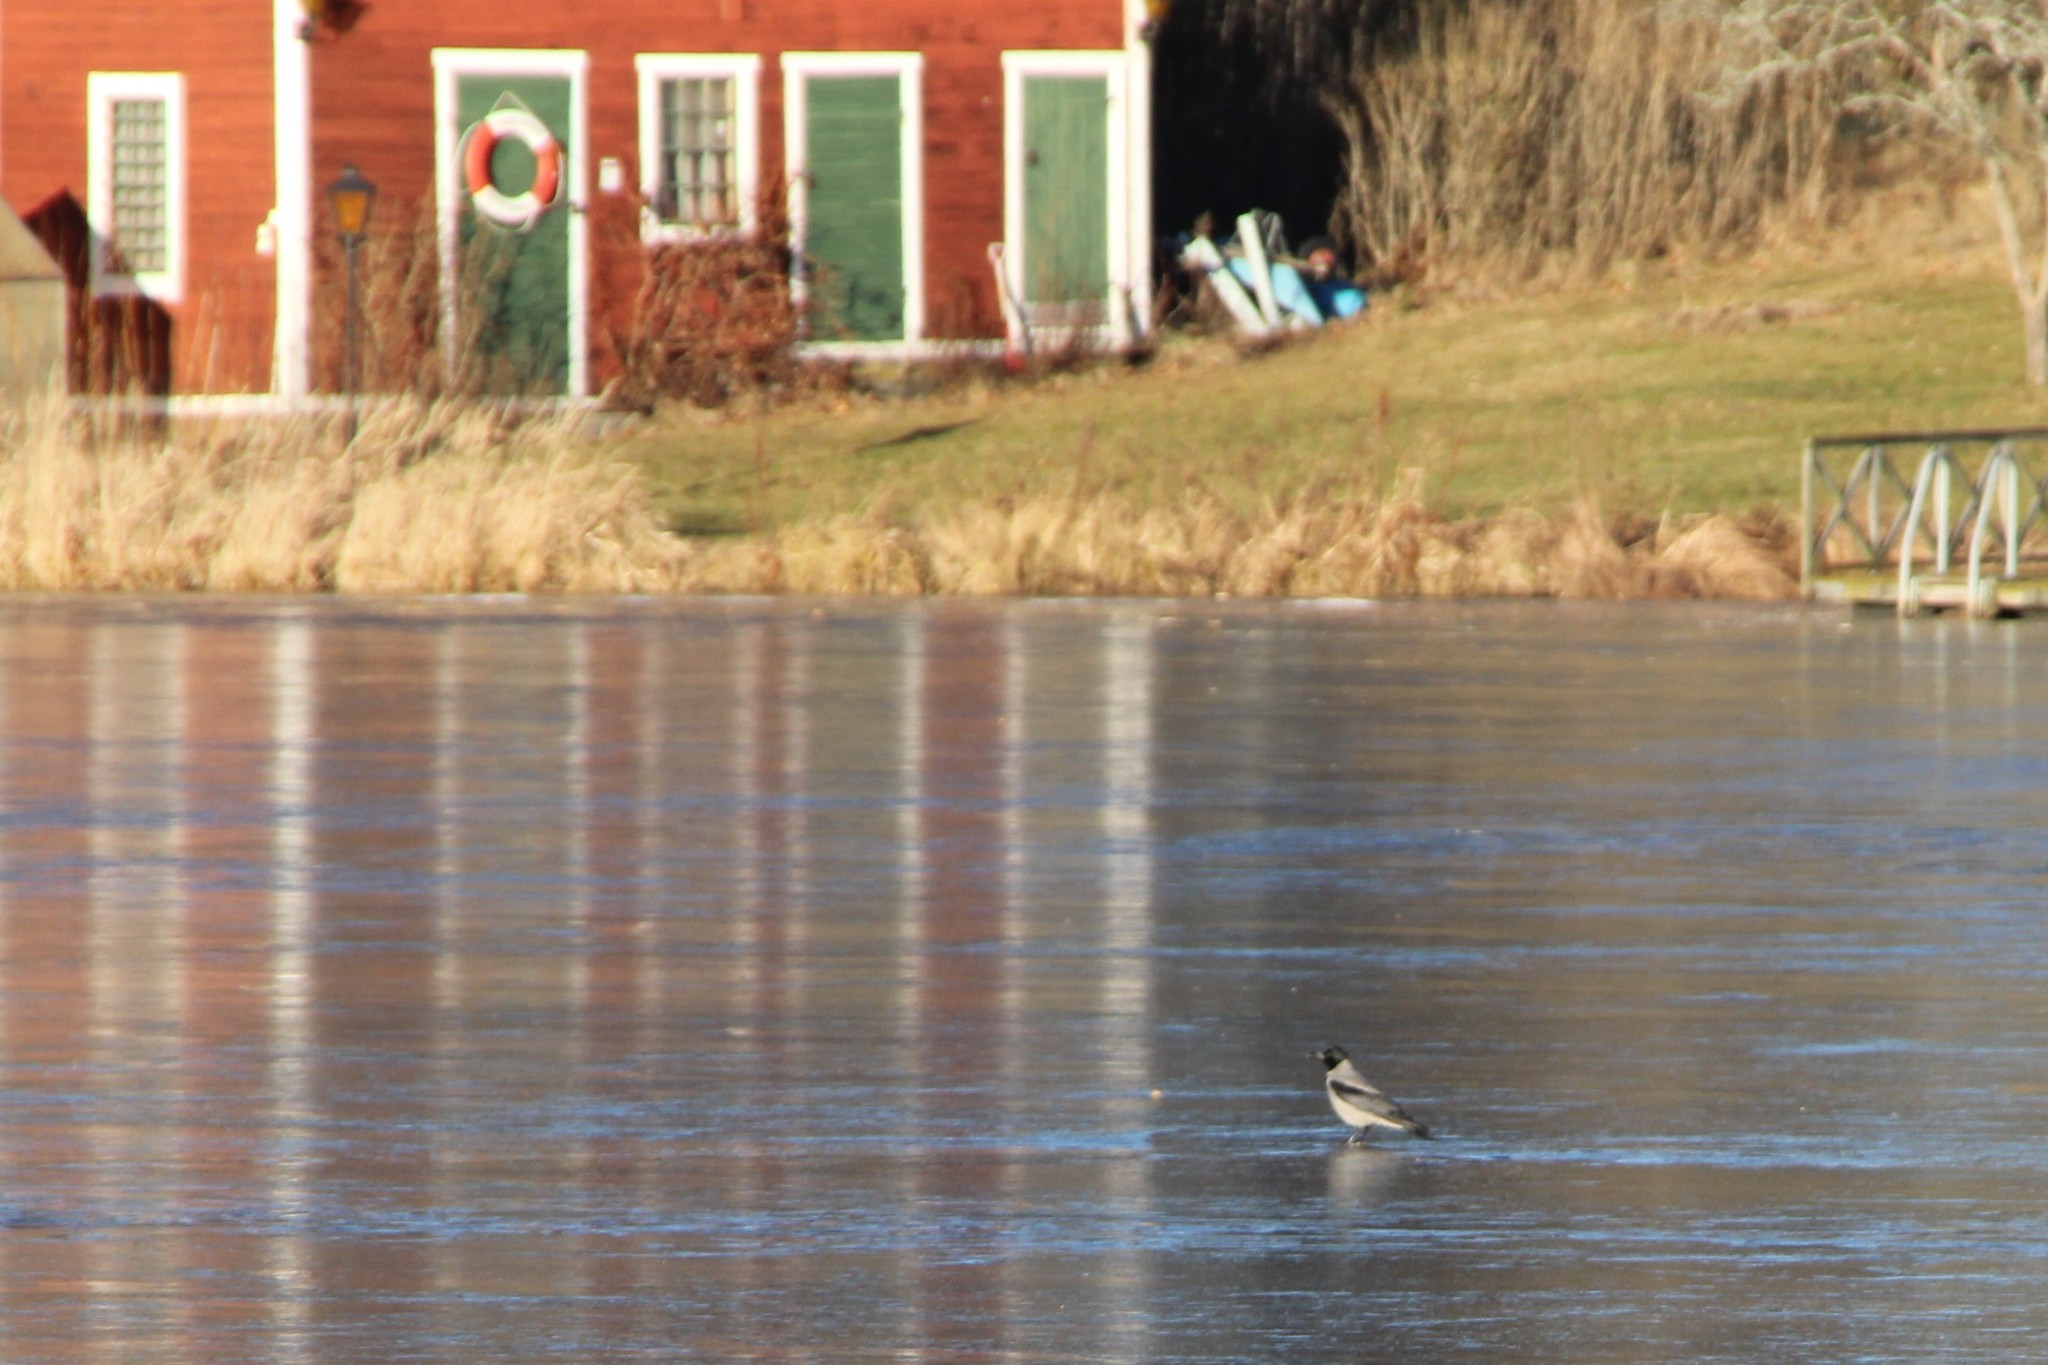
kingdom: Animalia
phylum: Chordata
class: Aves
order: Passeriformes
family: Corvidae
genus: Corvus
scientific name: Corvus cornix
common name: Hooded crow
